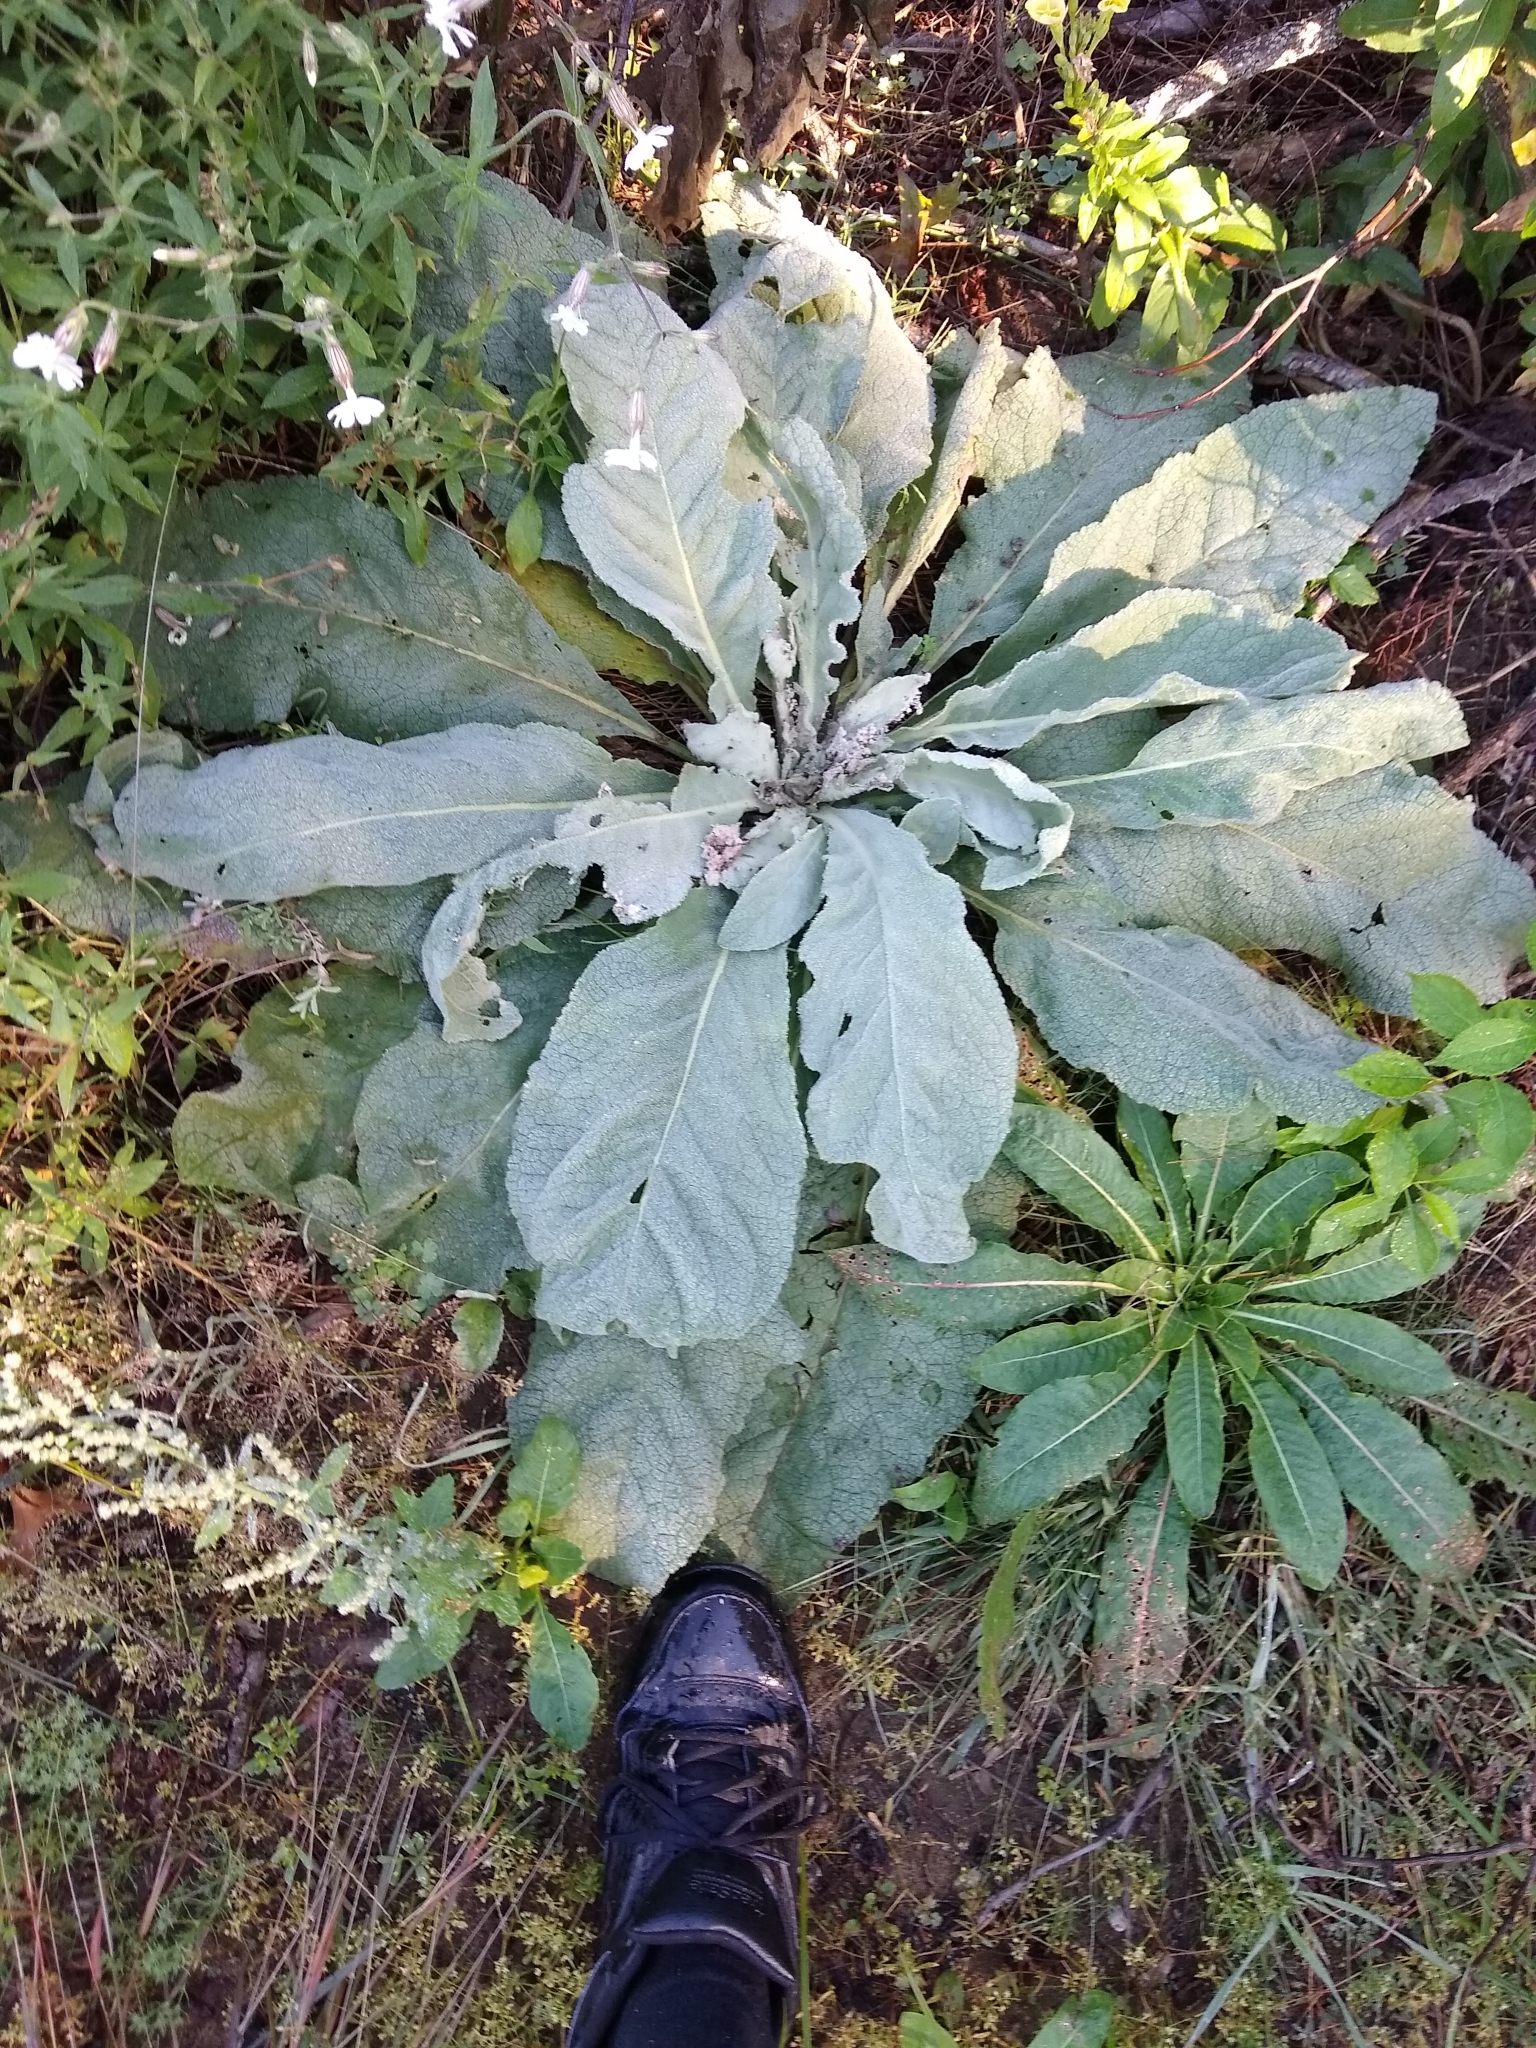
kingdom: Plantae
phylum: Tracheophyta
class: Magnoliopsida
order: Lamiales
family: Scrophulariaceae
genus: Verbascum
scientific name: Verbascum thapsus
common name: Common mullein
